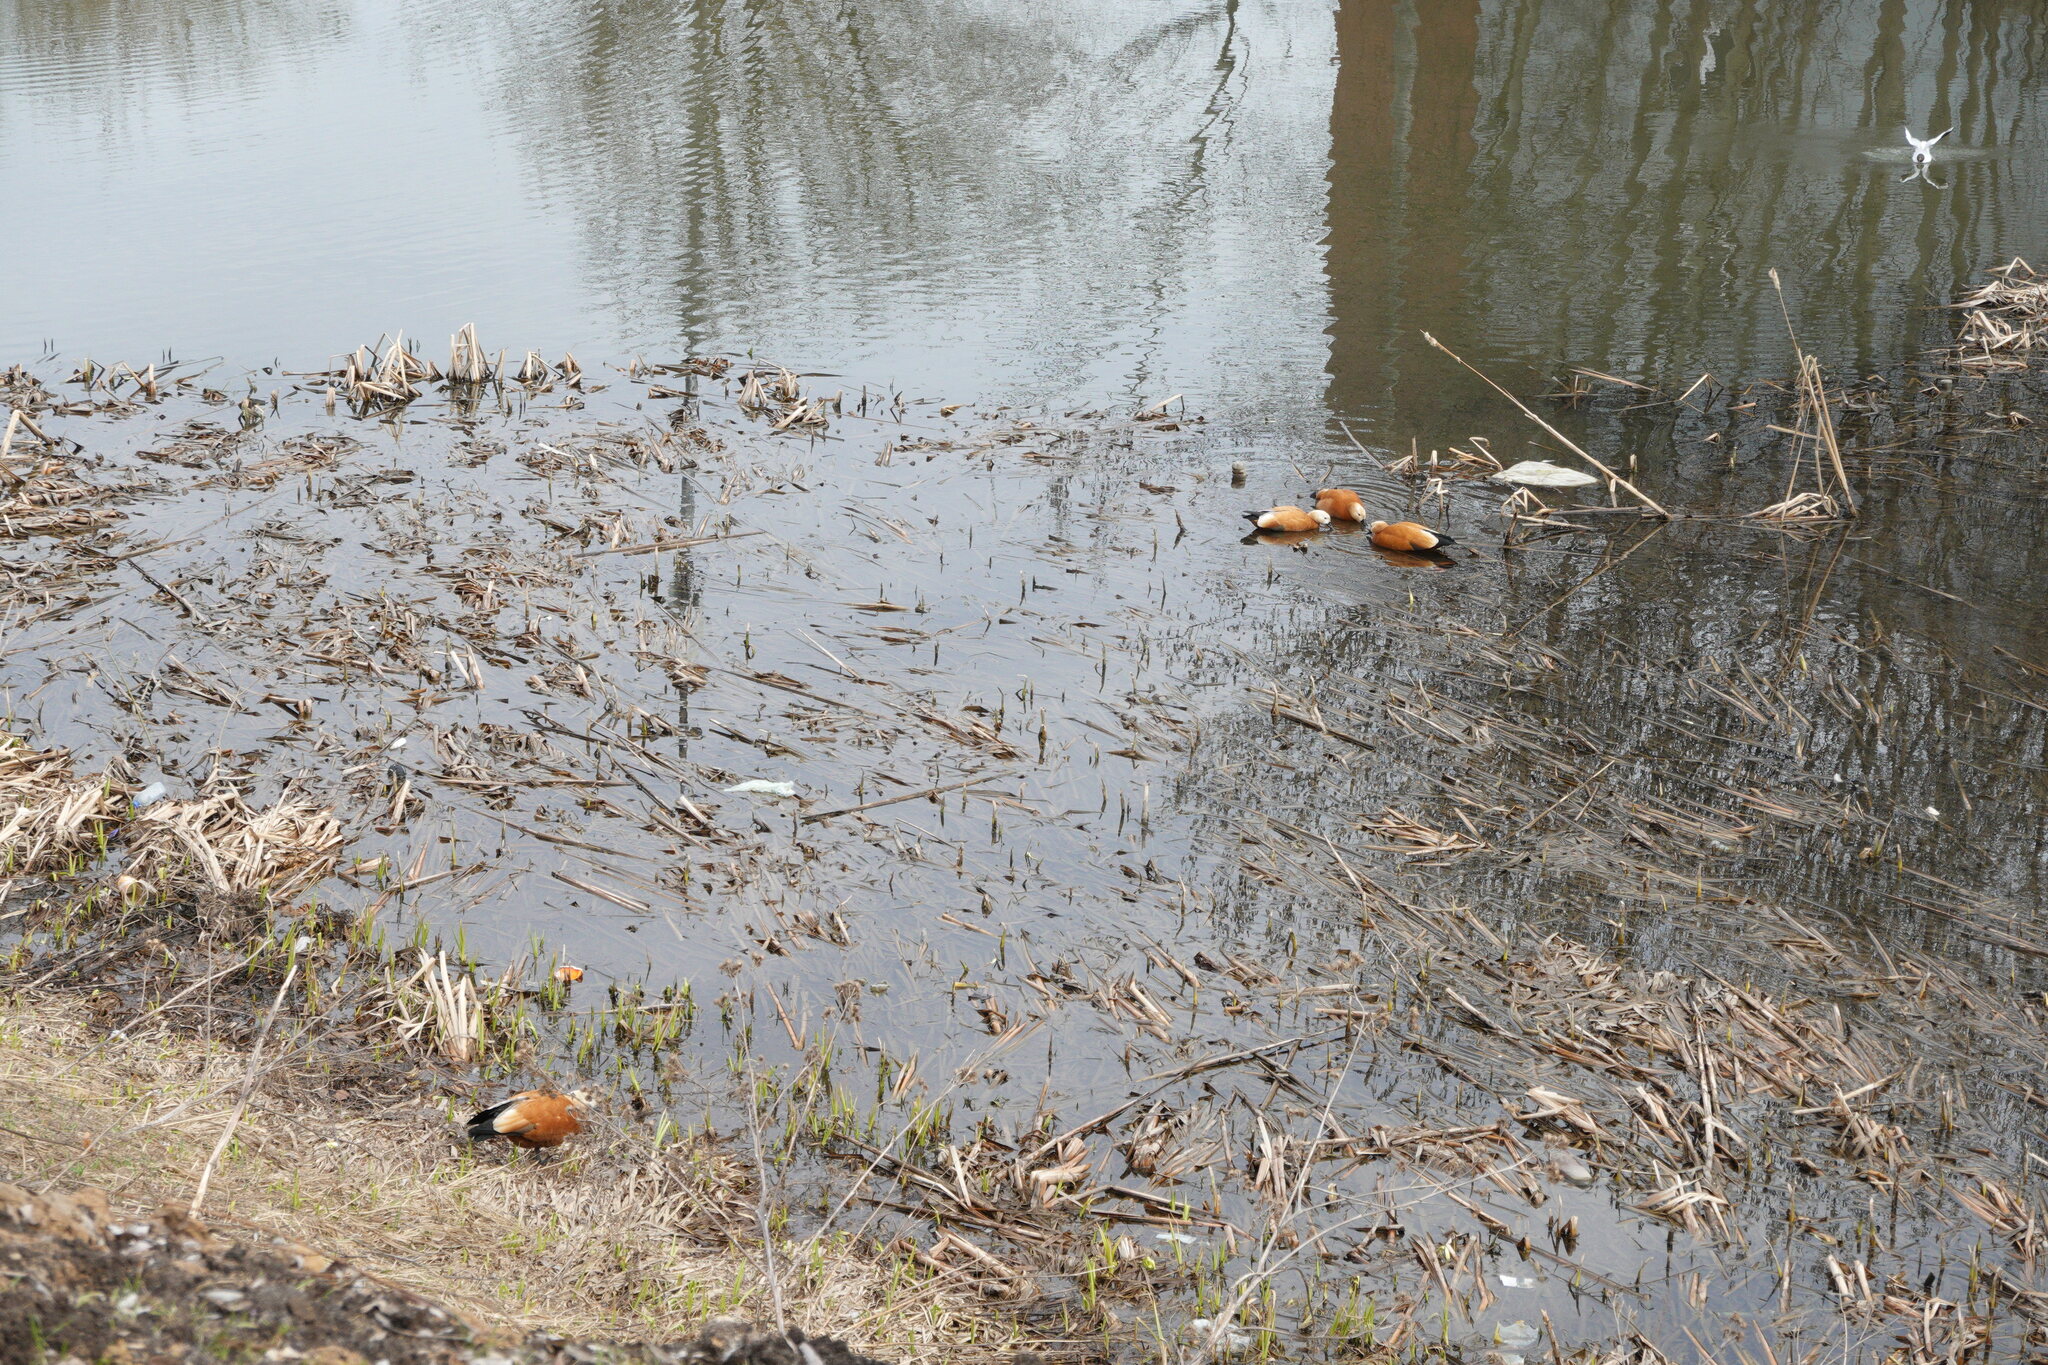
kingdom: Animalia
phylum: Chordata
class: Aves
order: Anseriformes
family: Anatidae
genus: Tadorna
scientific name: Tadorna ferruginea
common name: Ruddy shelduck
